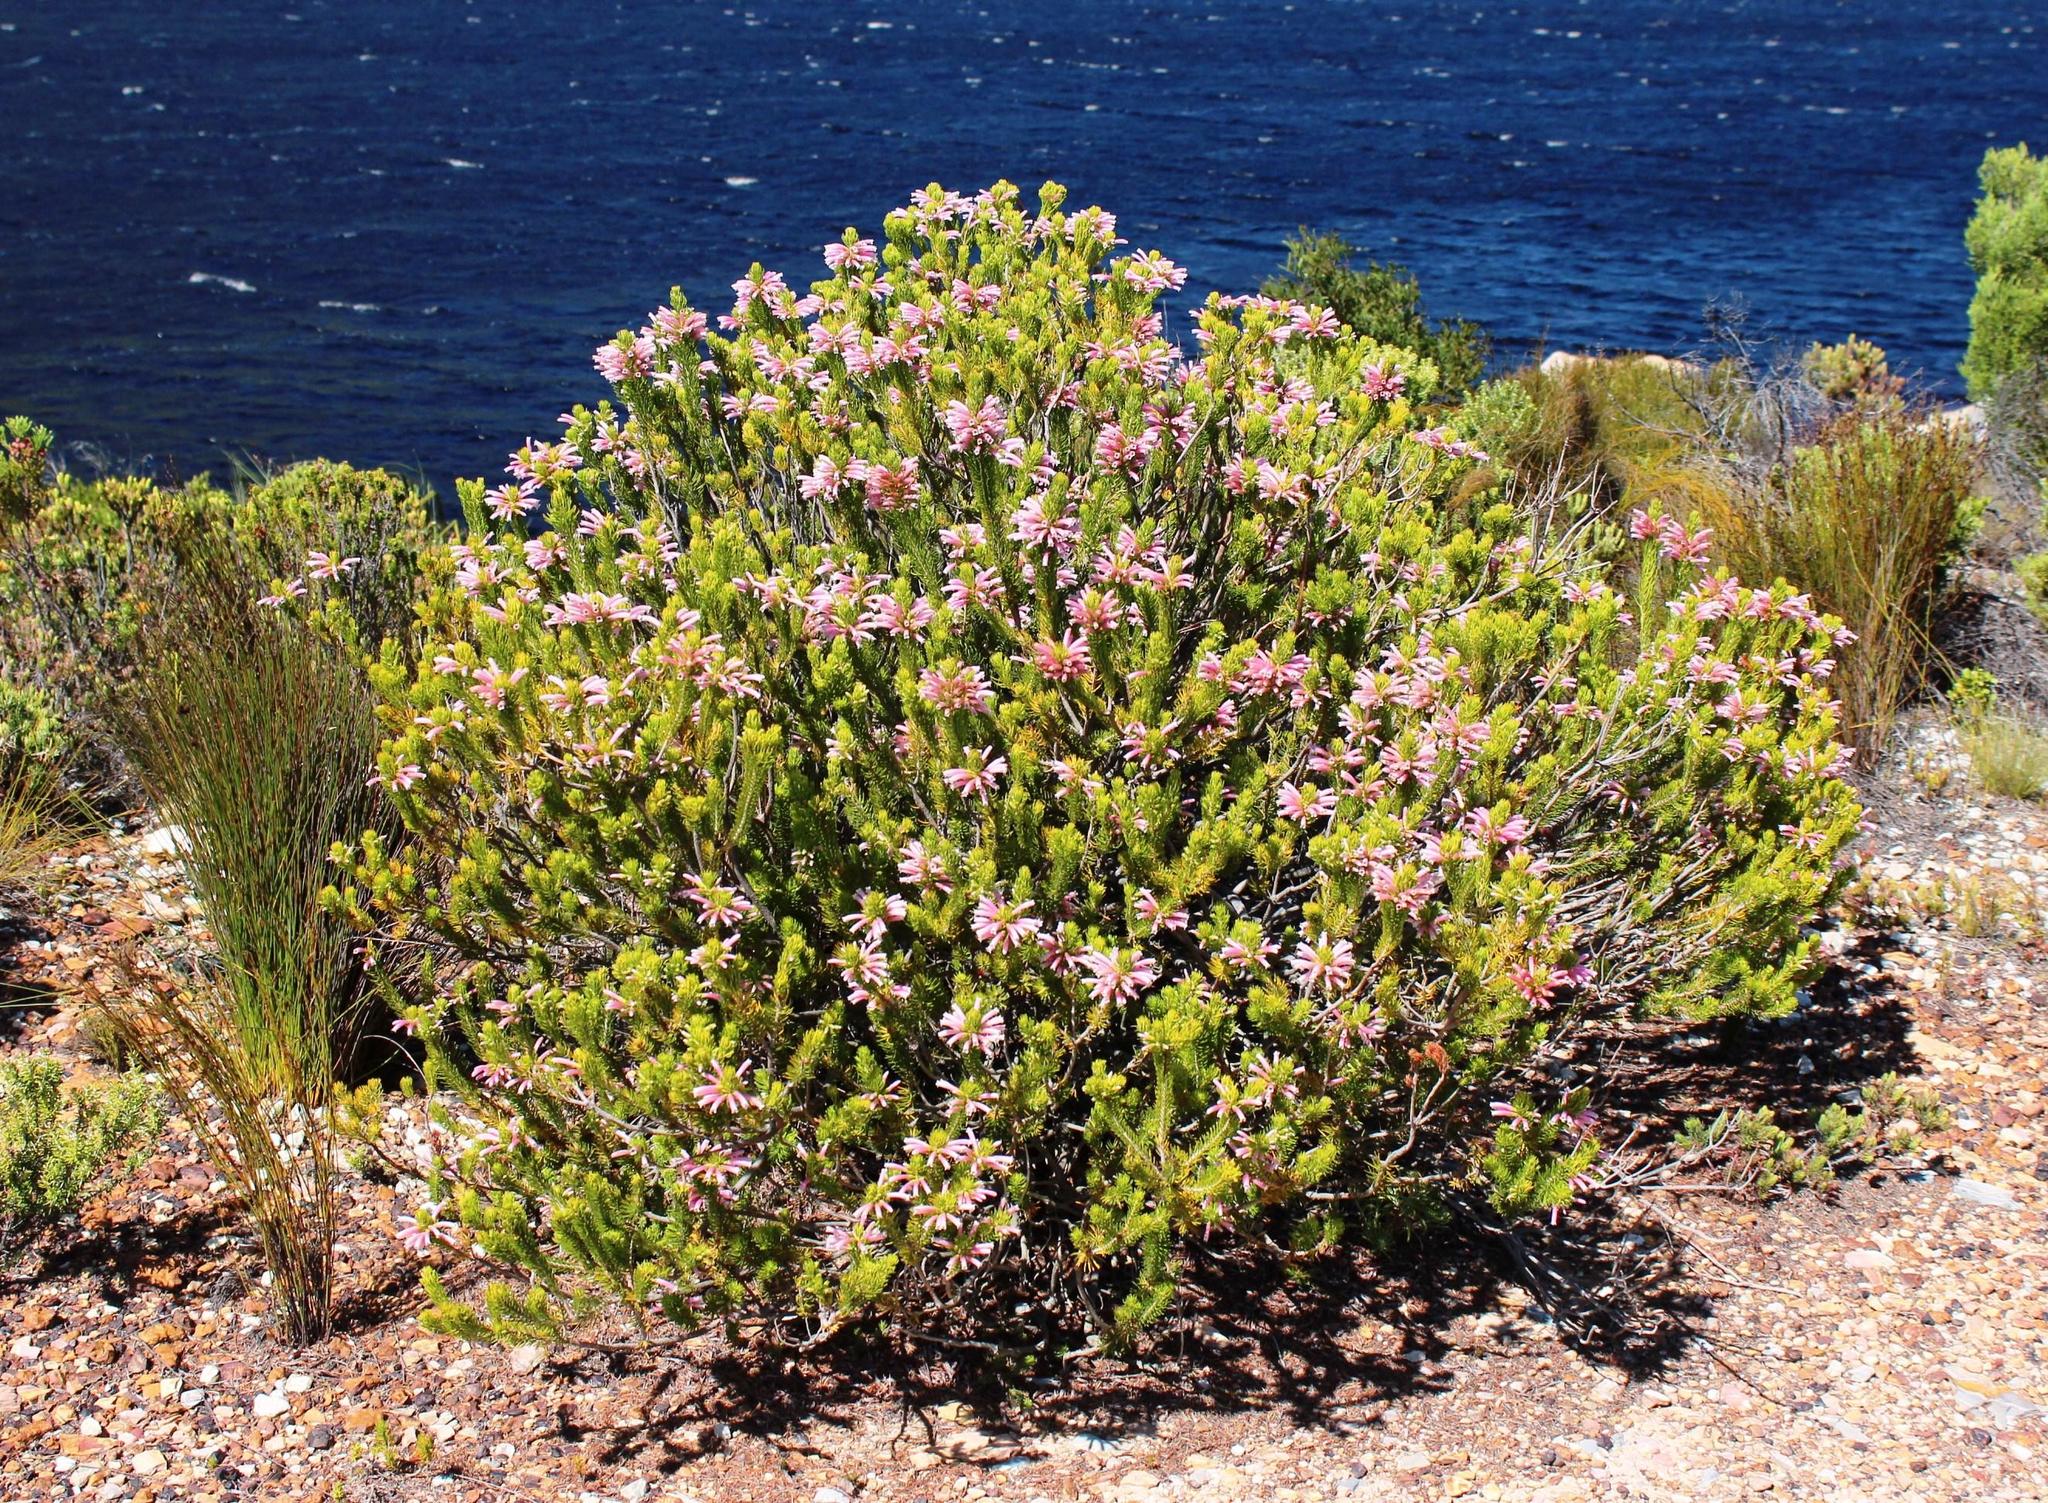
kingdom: Plantae
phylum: Tracheophyta
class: Magnoliopsida
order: Ericales
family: Ericaceae
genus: Erica
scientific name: Erica viscaria
